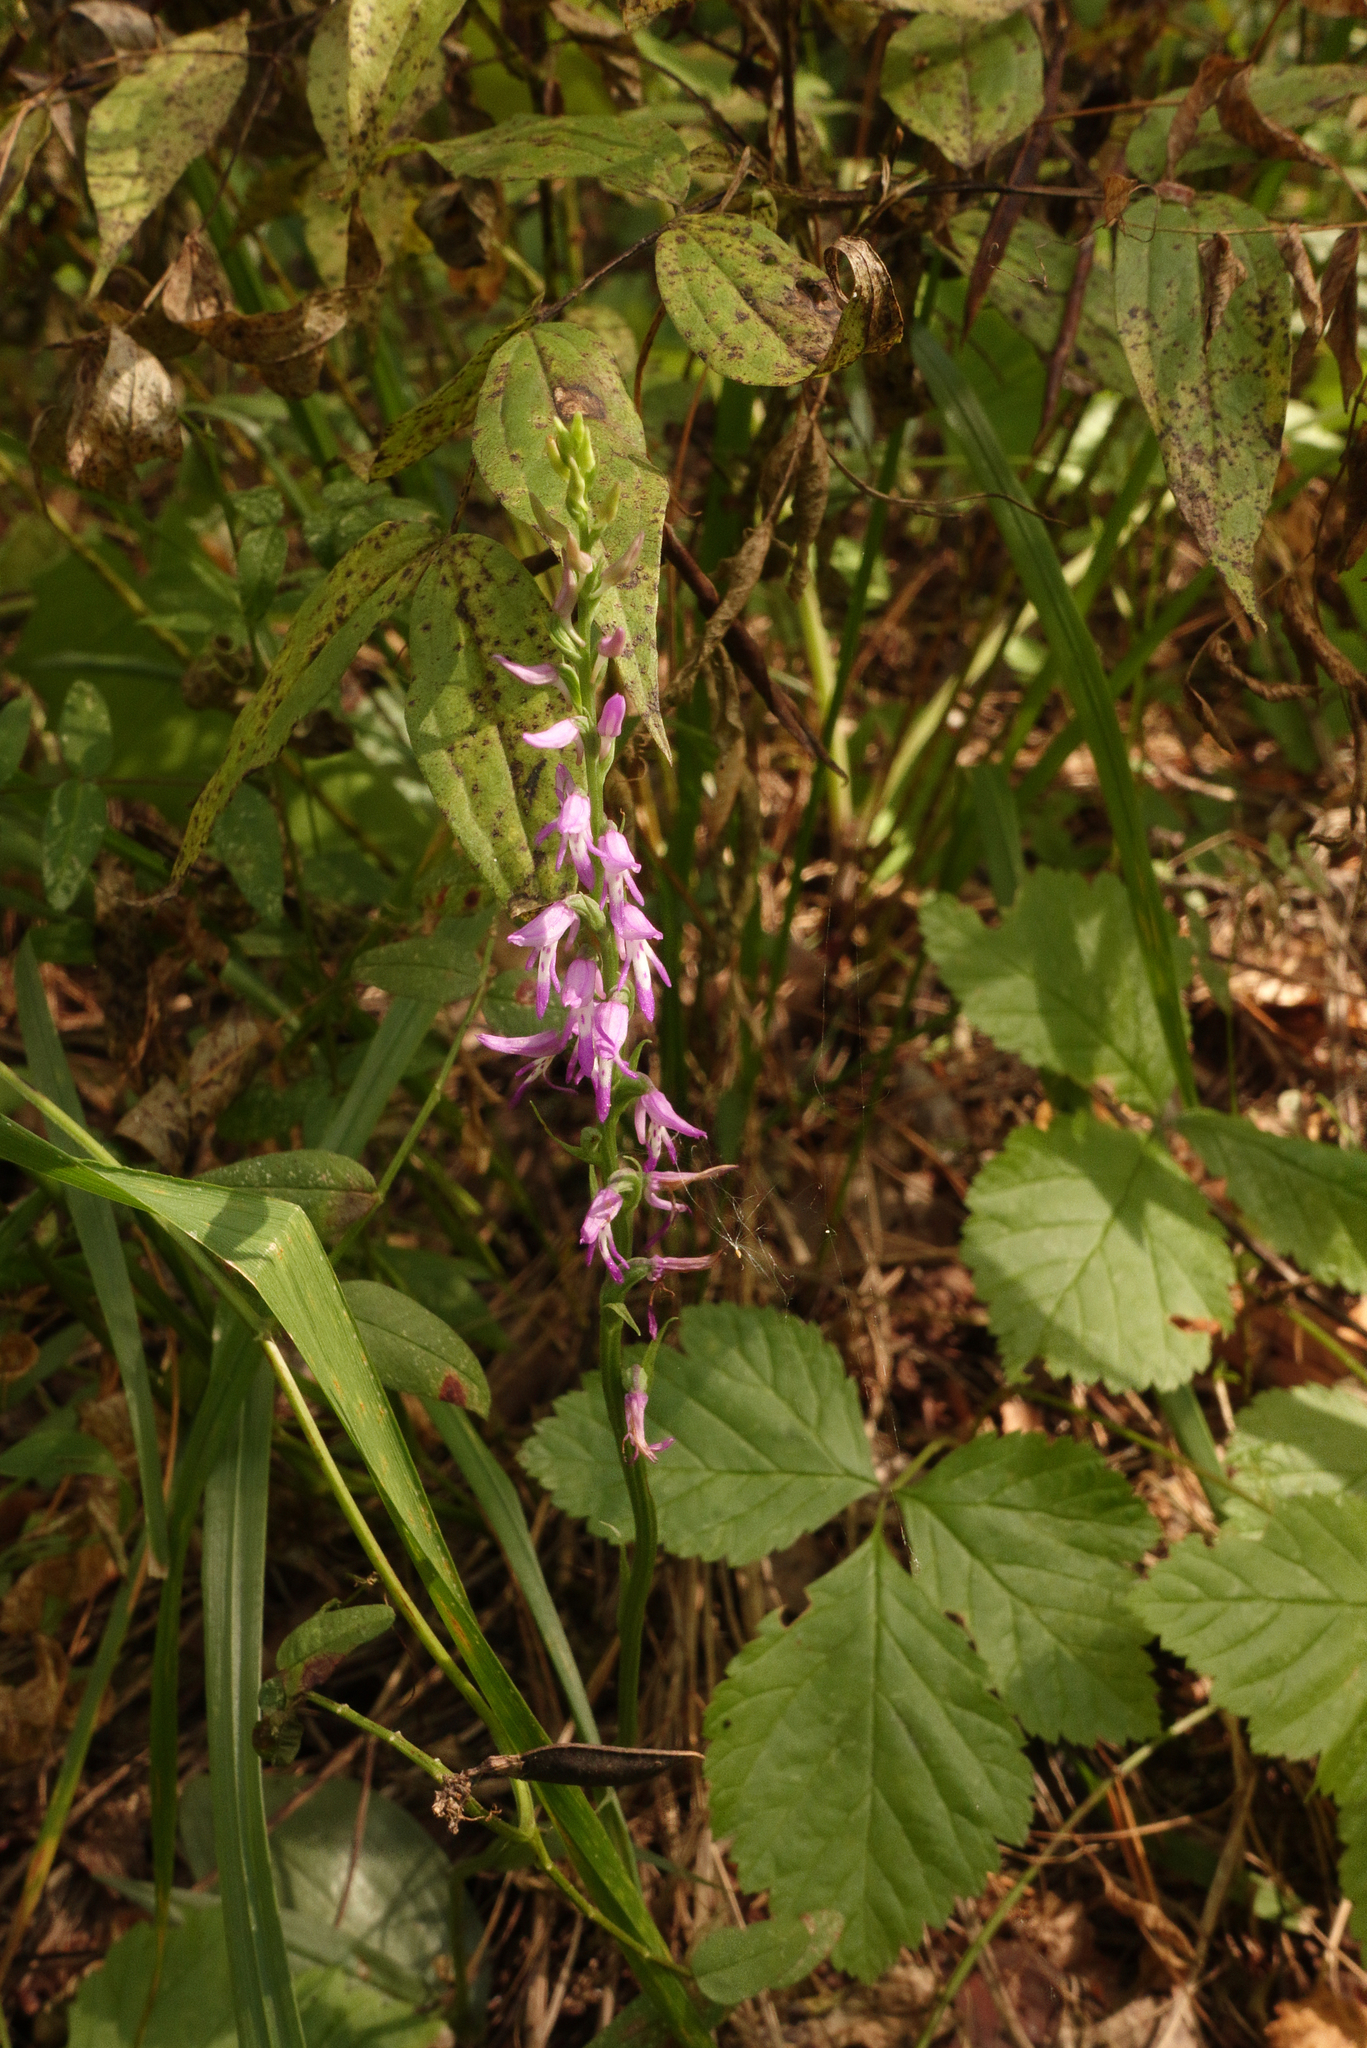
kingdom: Plantae
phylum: Tracheophyta
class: Liliopsida
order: Asparagales
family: Orchidaceae
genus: Hemipilia
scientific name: Hemipilia cucullata
